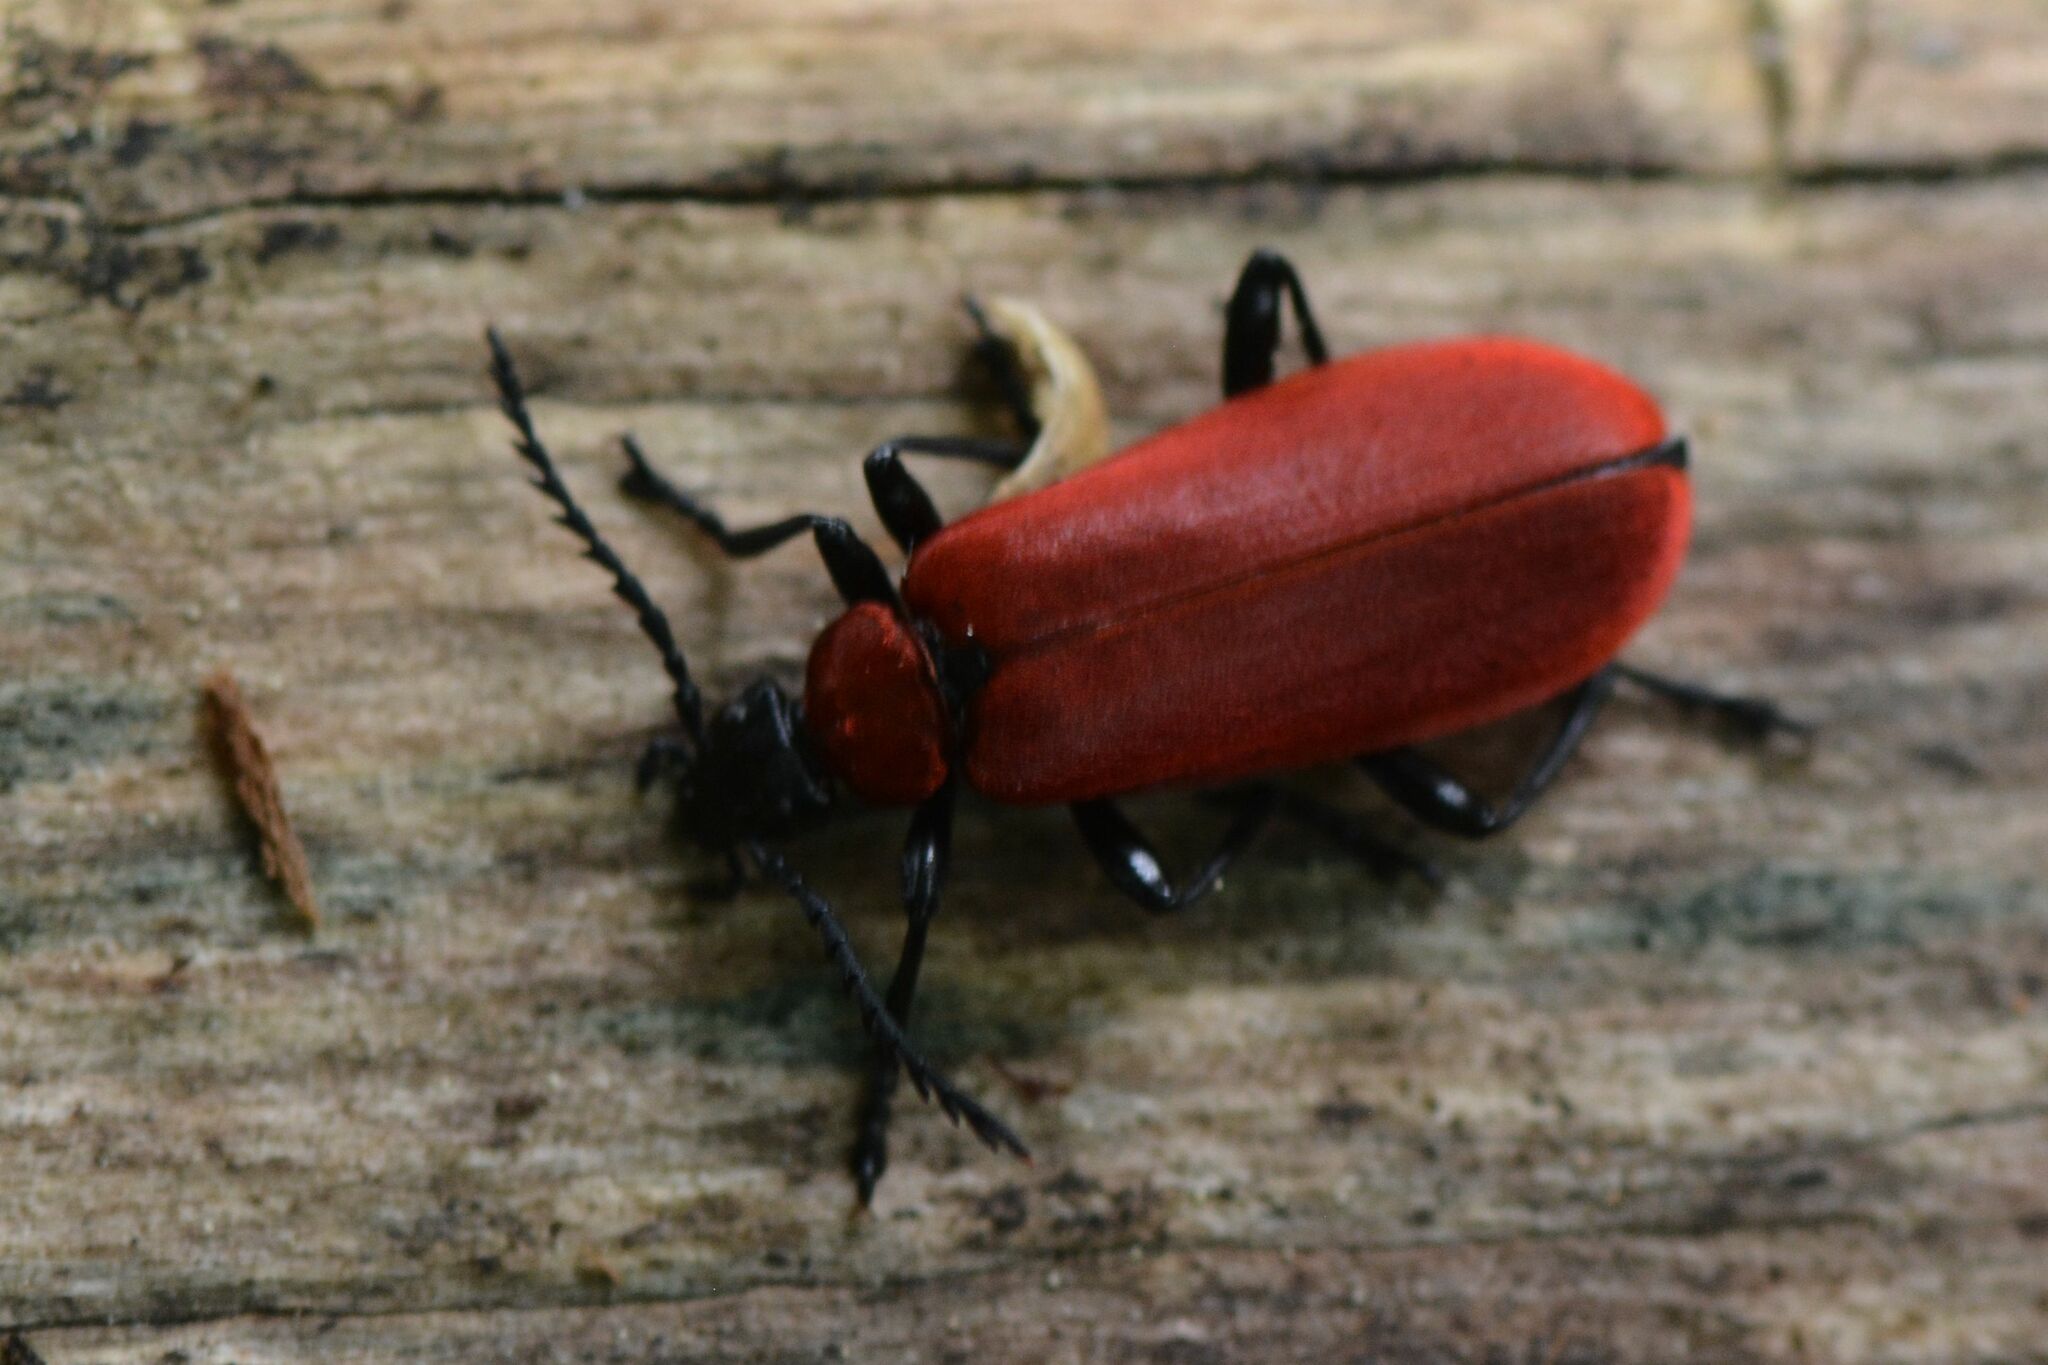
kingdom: Animalia
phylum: Arthropoda
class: Insecta
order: Coleoptera
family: Pyrochroidae
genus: Pyrochroa
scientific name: Pyrochroa coccinea
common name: Black-headed cardinal beetle
